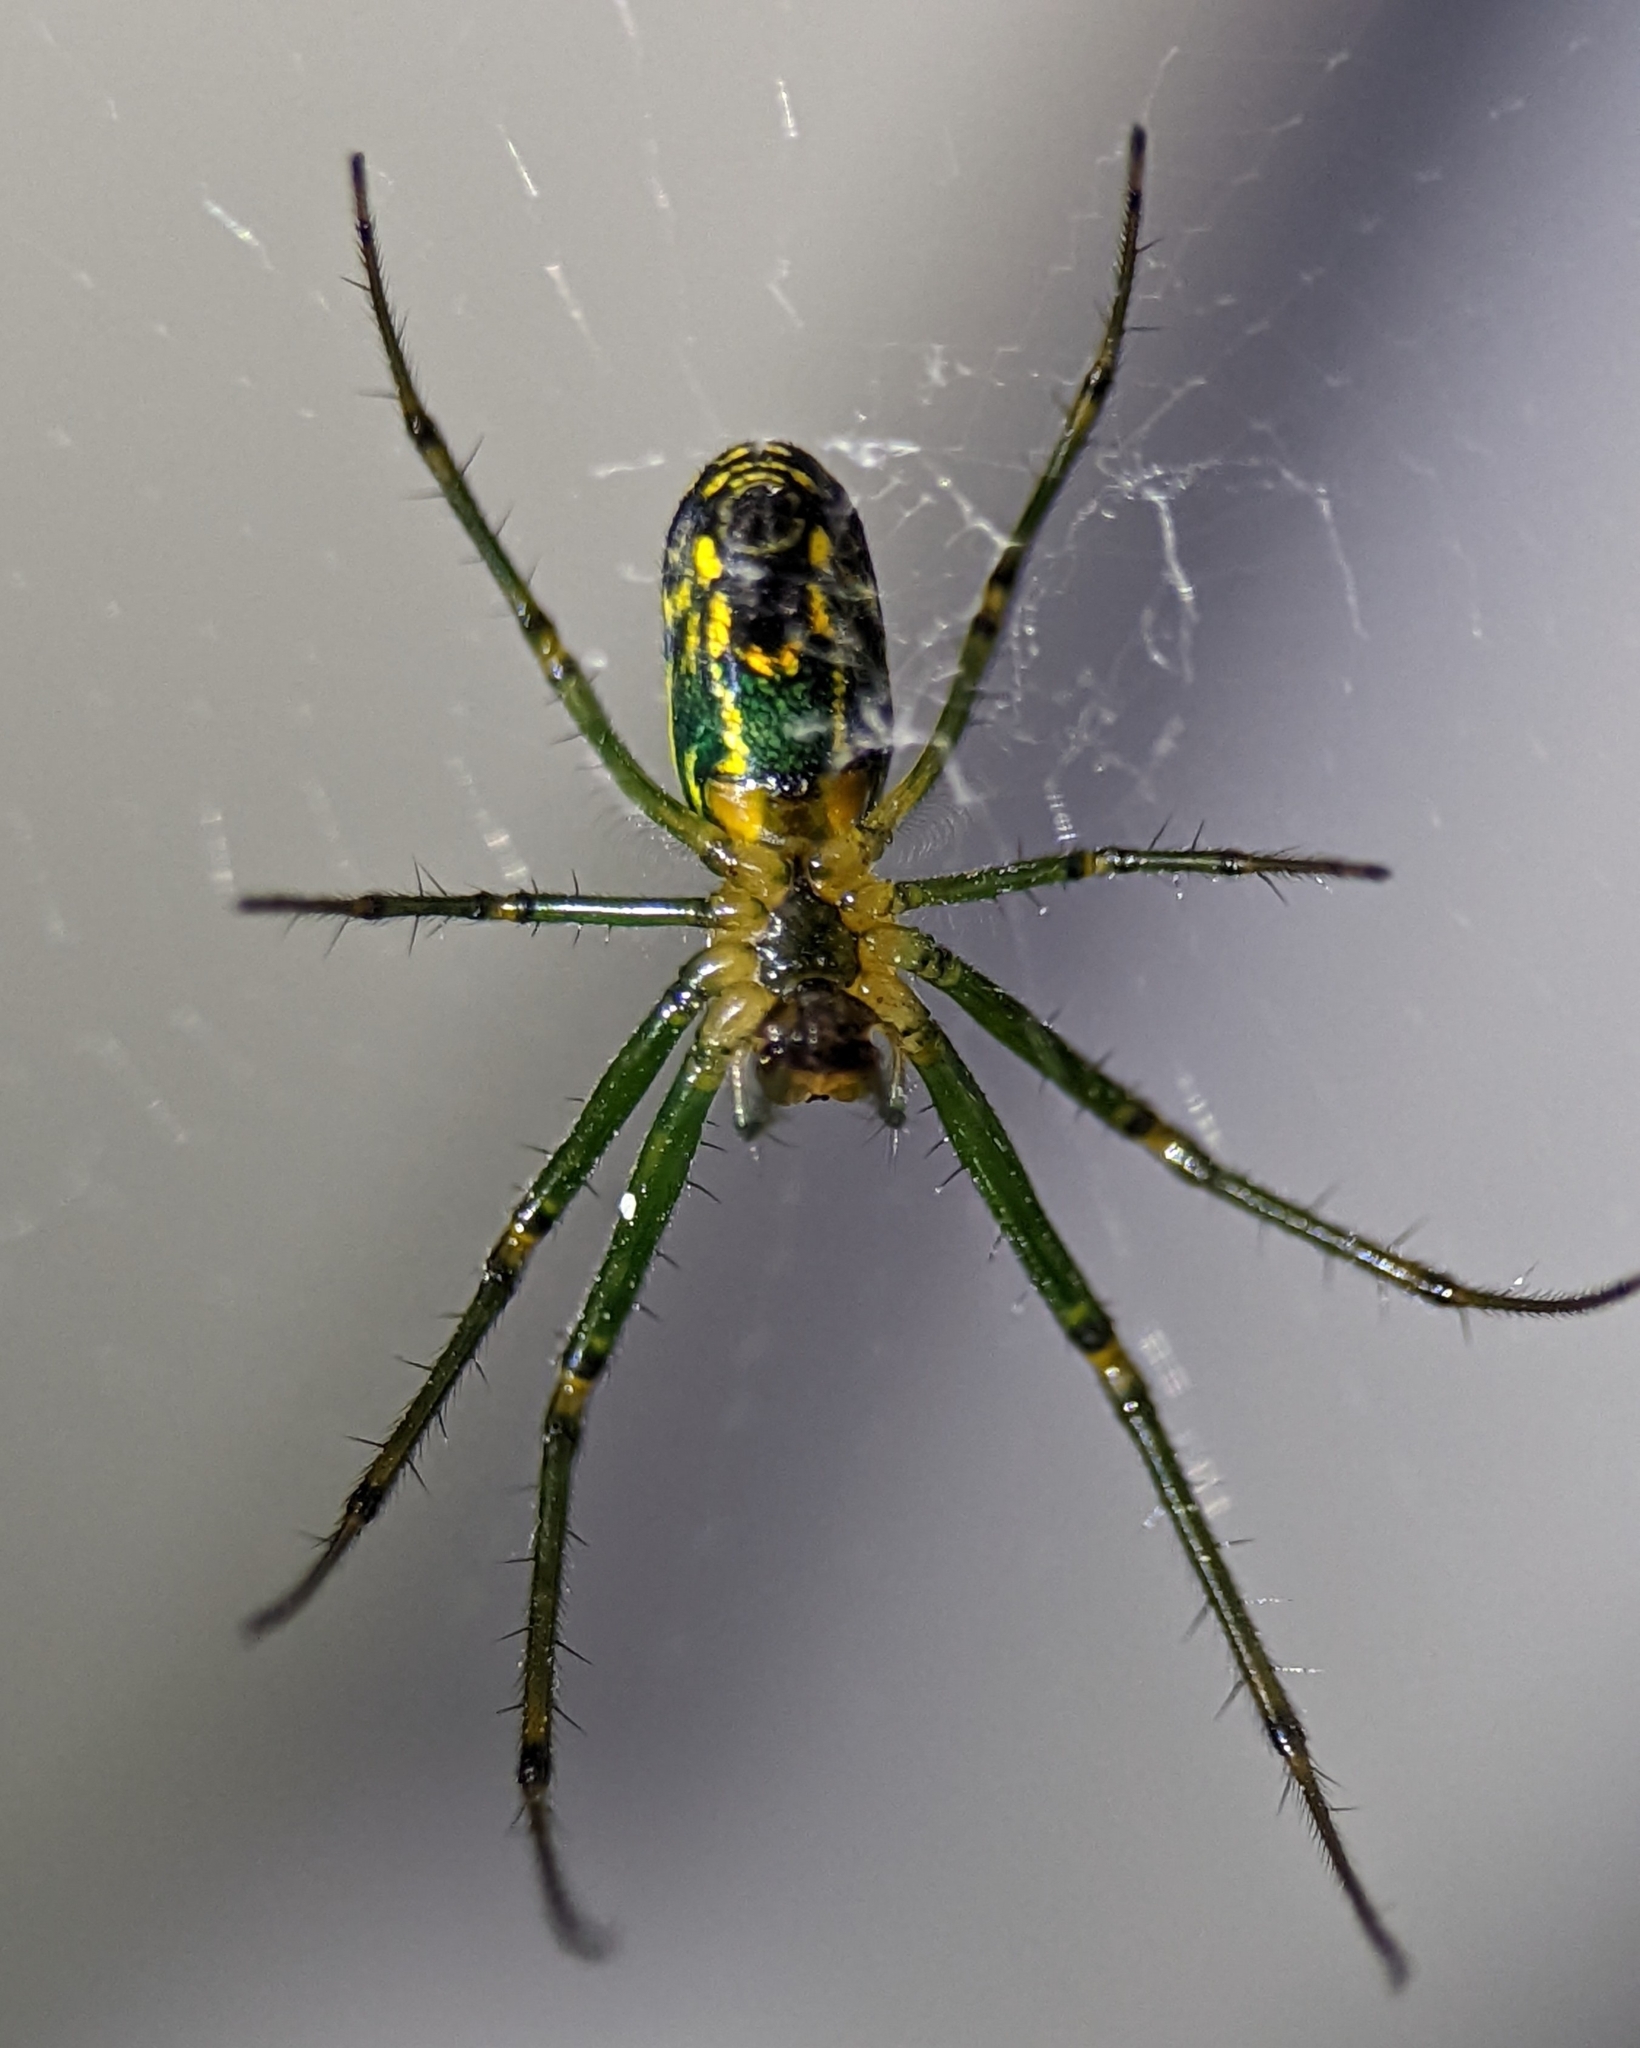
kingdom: Animalia
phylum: Arthropoda
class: Arachnida
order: Araneae
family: Tetragnathidae
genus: Leucauge
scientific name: Leucauge venusta
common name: Longjawed orb weavers
